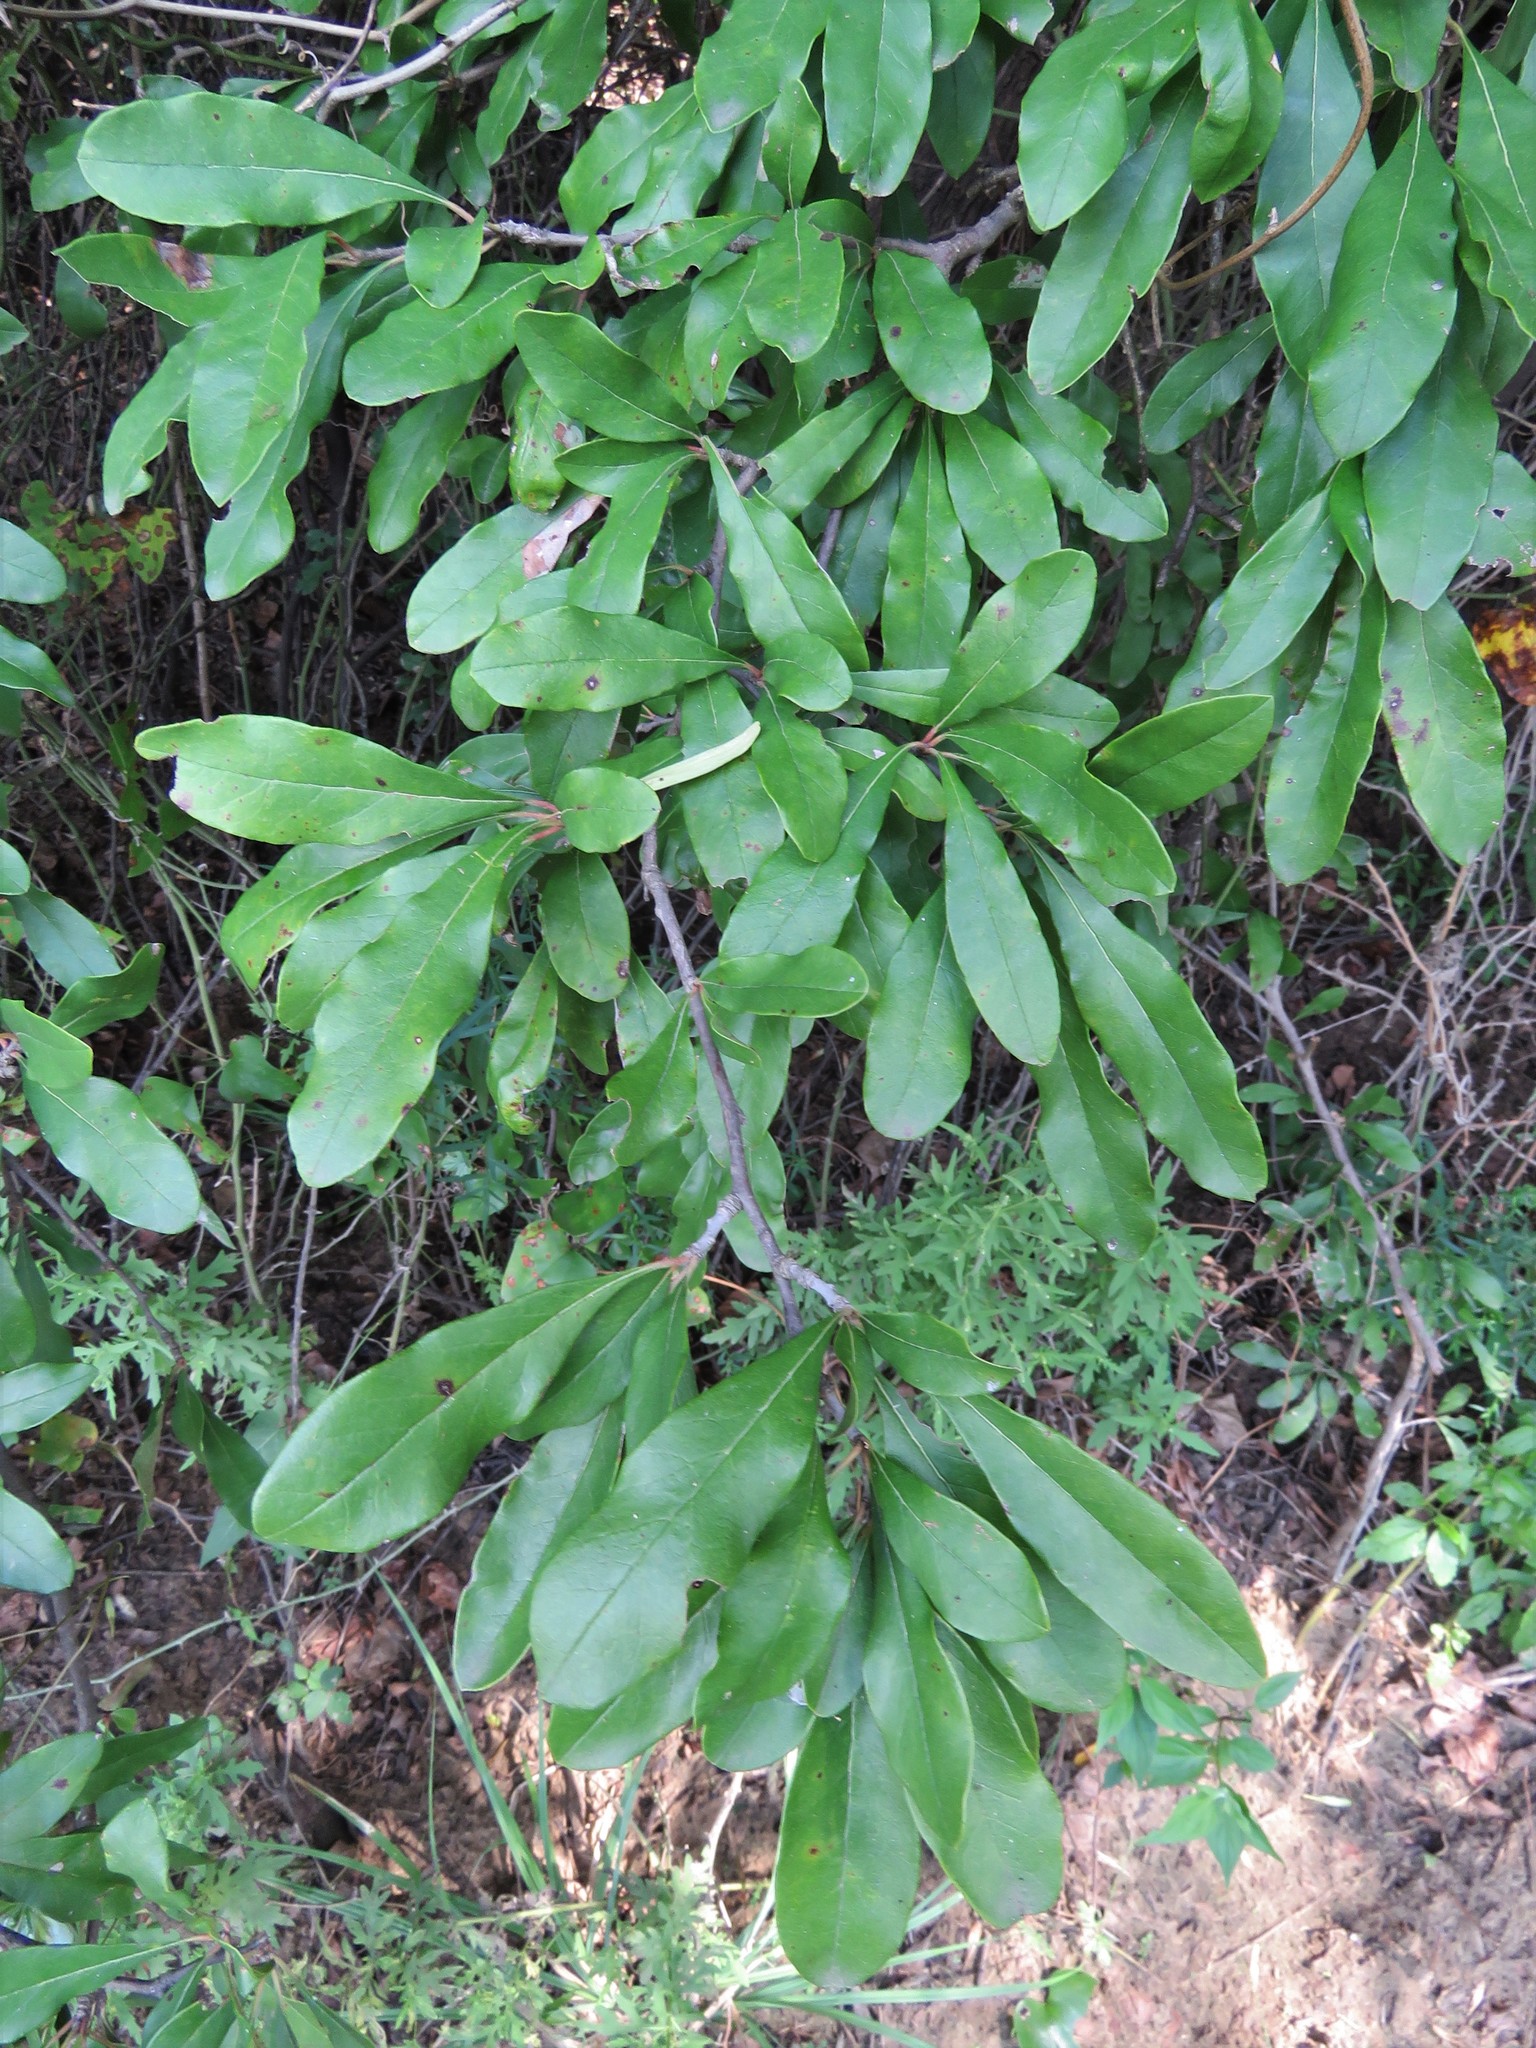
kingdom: Plantae
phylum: Tracheophyta
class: Magnoliopsida
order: Ericales
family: Sapotaceae
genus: Sideroxylon
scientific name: Sideroxylon lanuginosum
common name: Chittamwood
